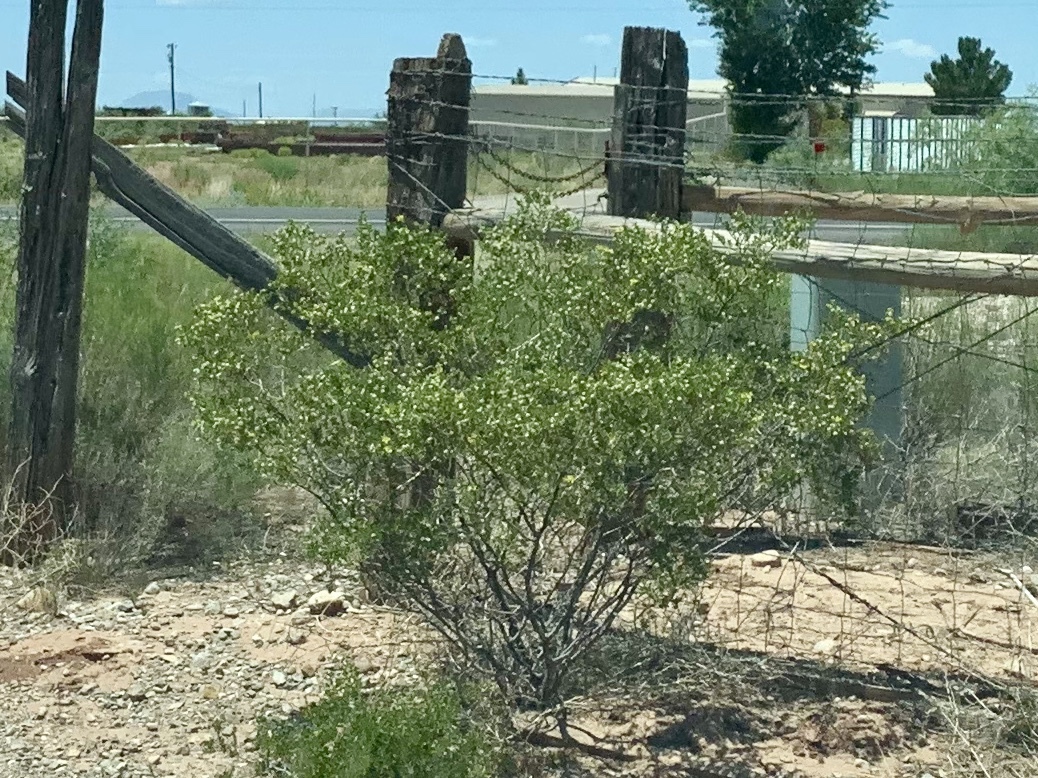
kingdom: Plantae
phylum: Tracheophyta
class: Magnoliopsida
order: Zygophyllales
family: Zygophyllaceae
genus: Larrea
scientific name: Larrea tridentata
